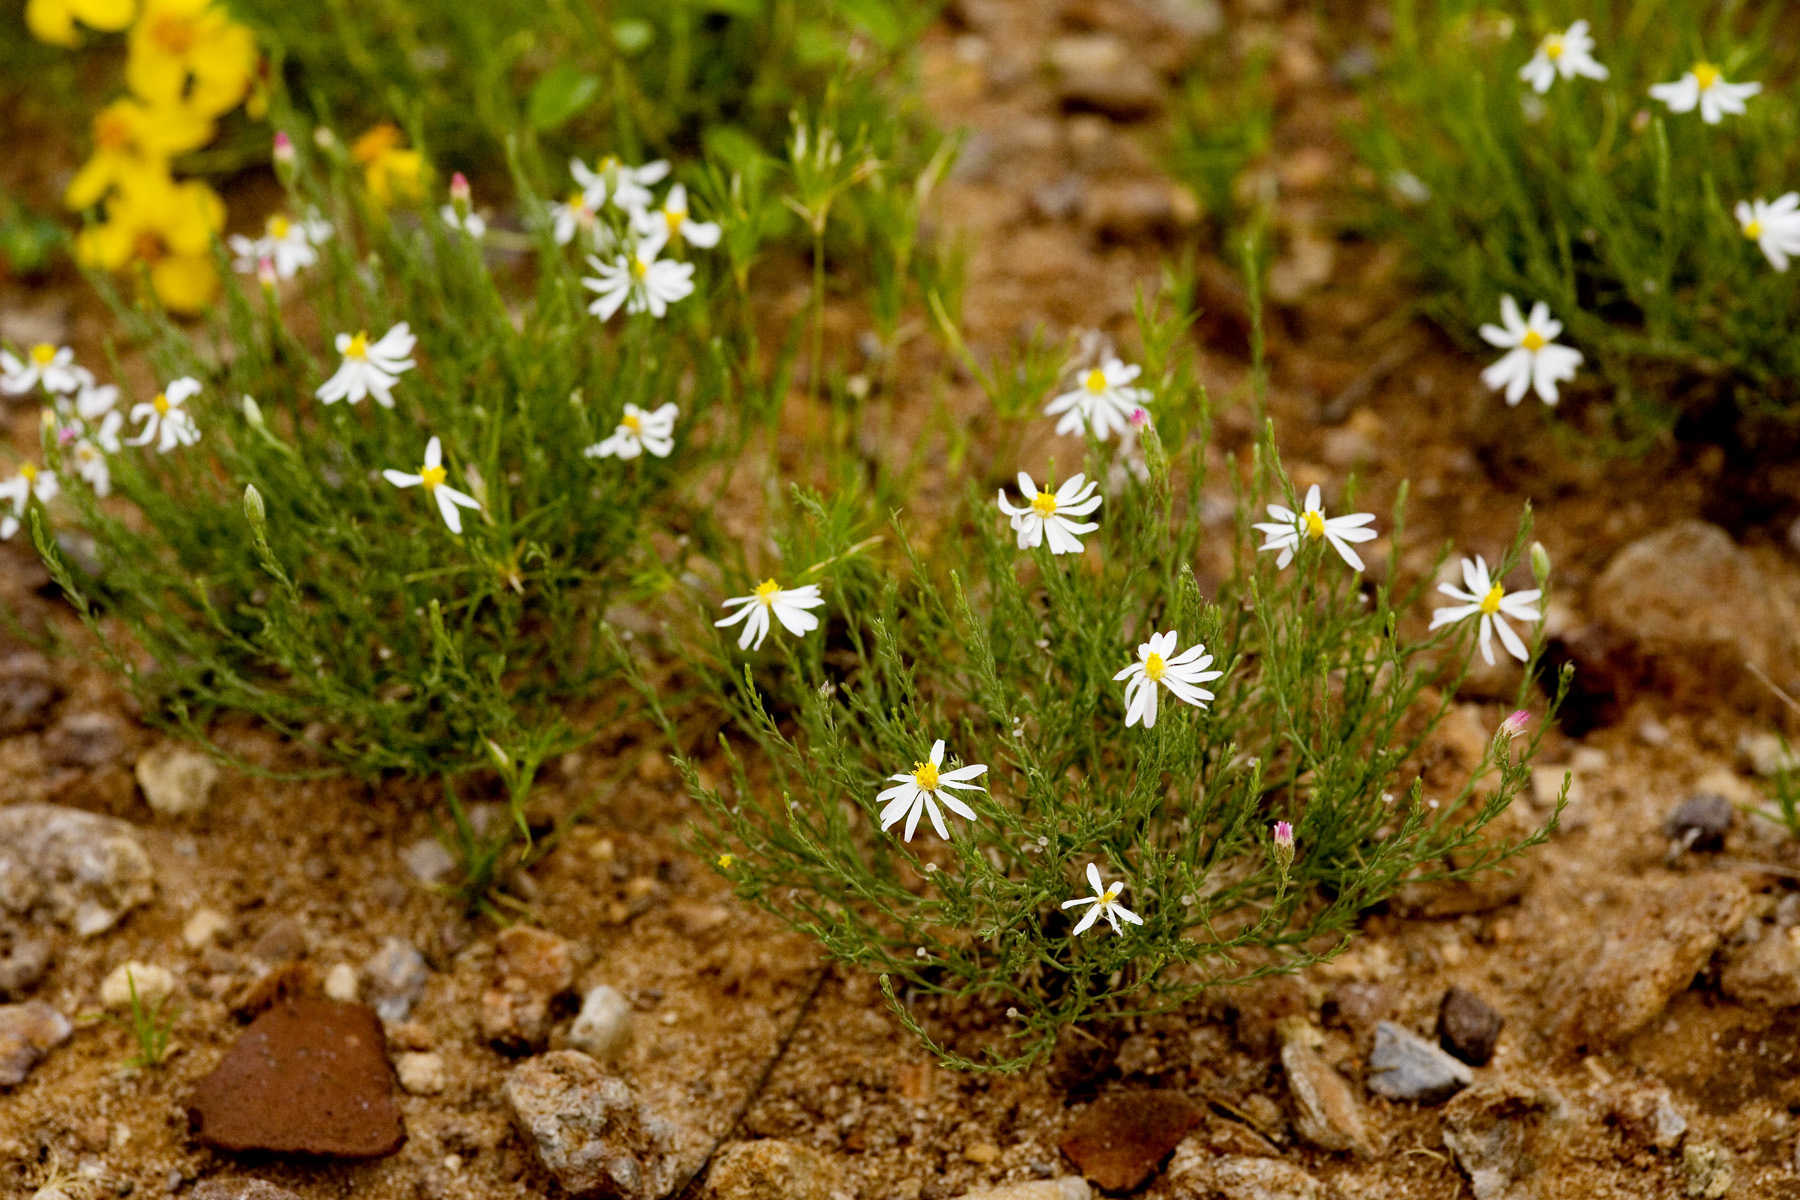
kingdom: Plantae
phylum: Tracheophyta
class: Magnoliopsida
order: Asterales
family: Asteraceae
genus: Chaetopappa
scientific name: Chaetopappa ericoides
